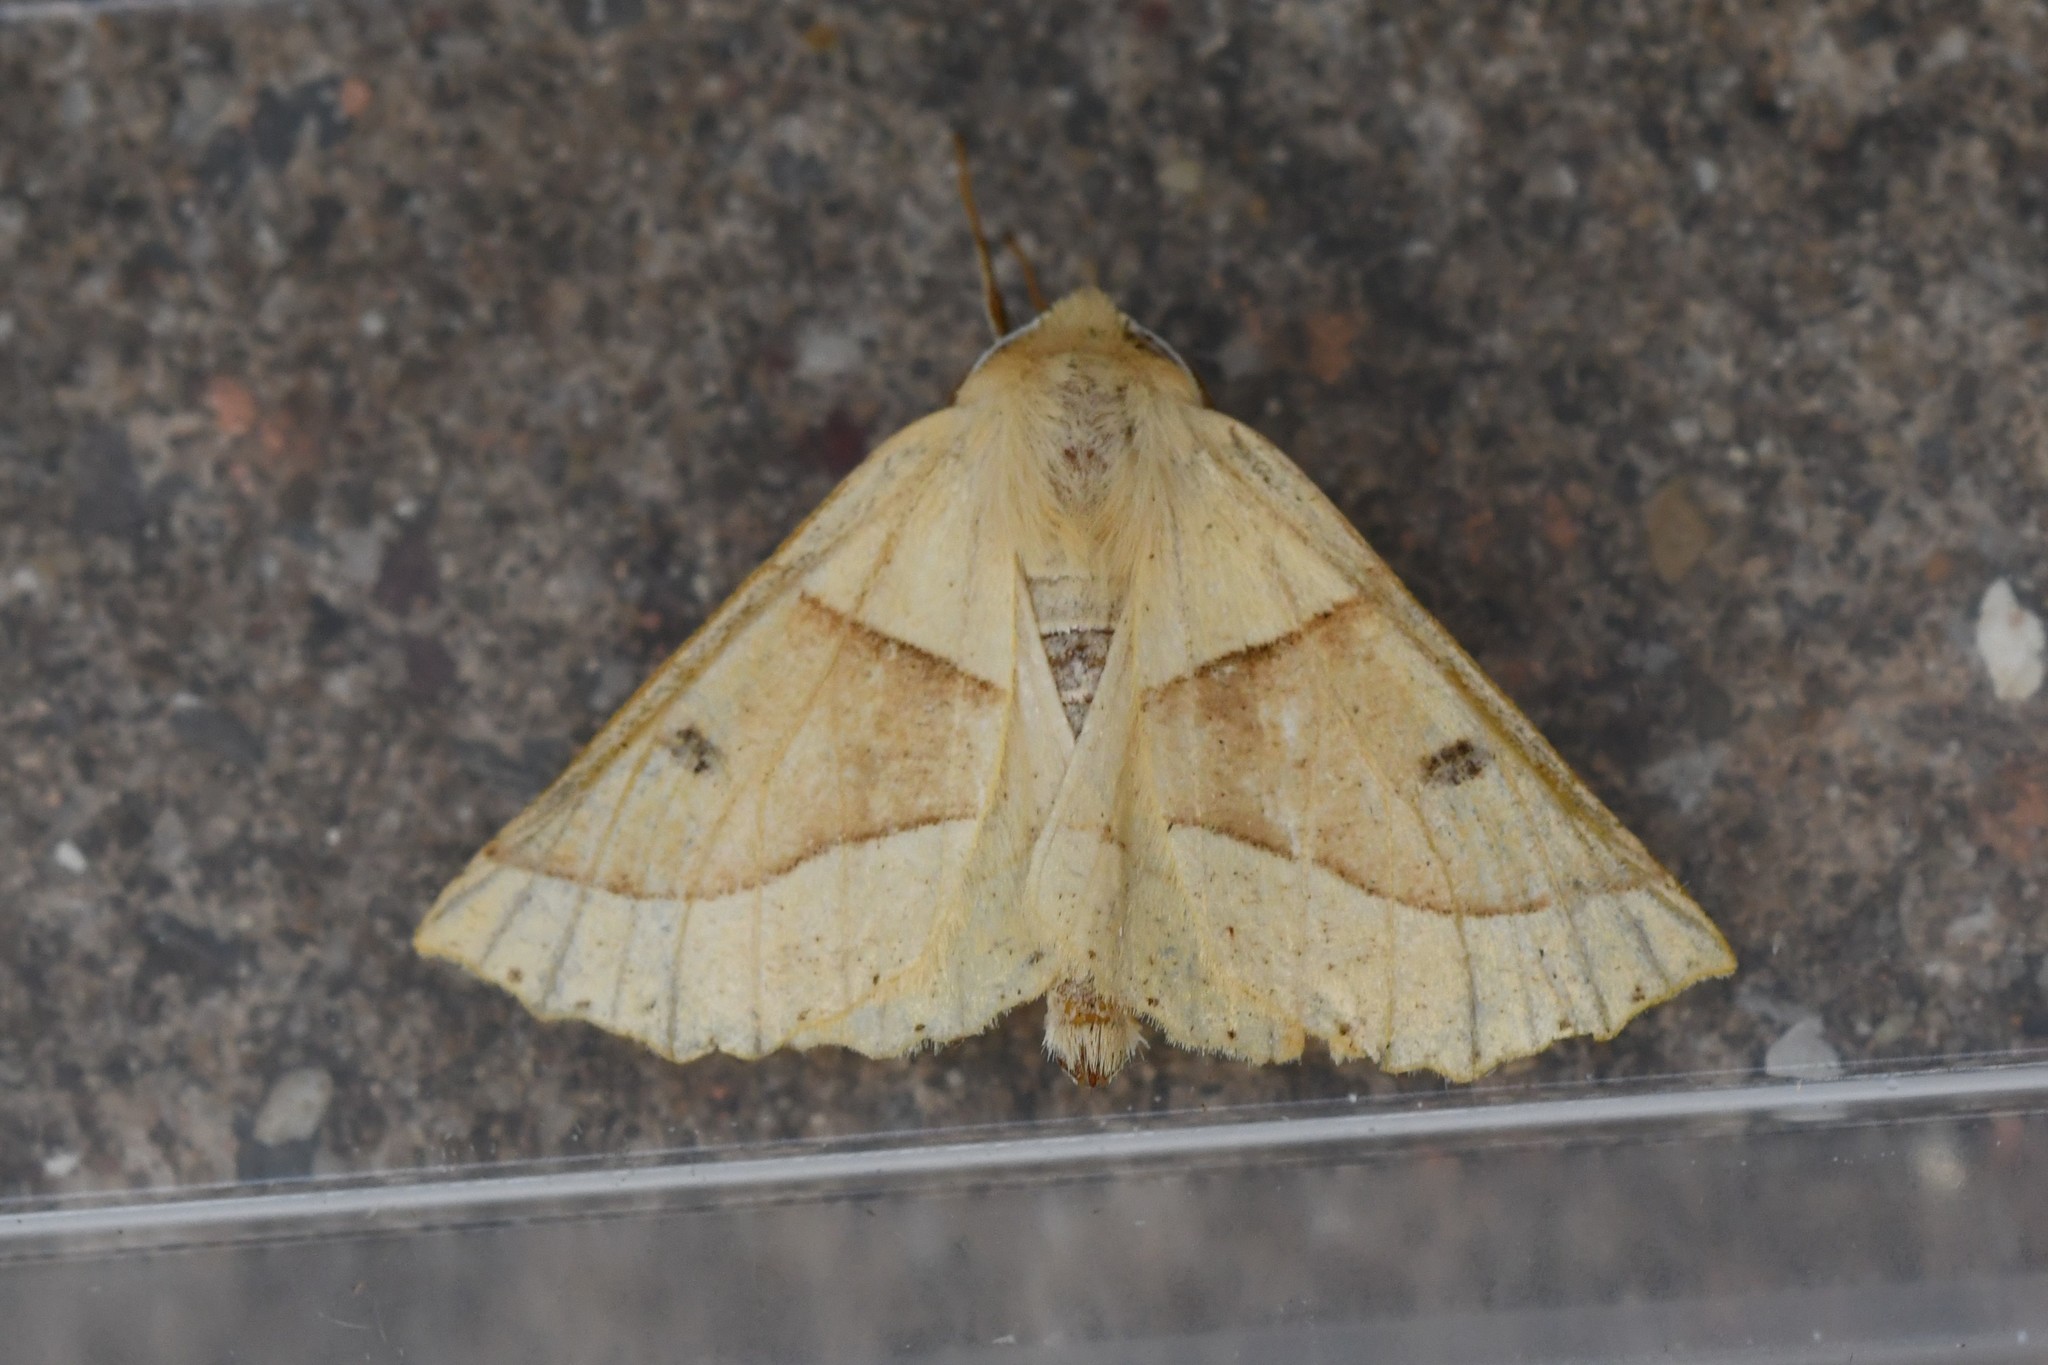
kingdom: Animalia
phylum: Arthropoda
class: Insecta
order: Lepidoptera
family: Geometridae
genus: Crocallis
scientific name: Crocallis elinguaria
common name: Scalloped oak
